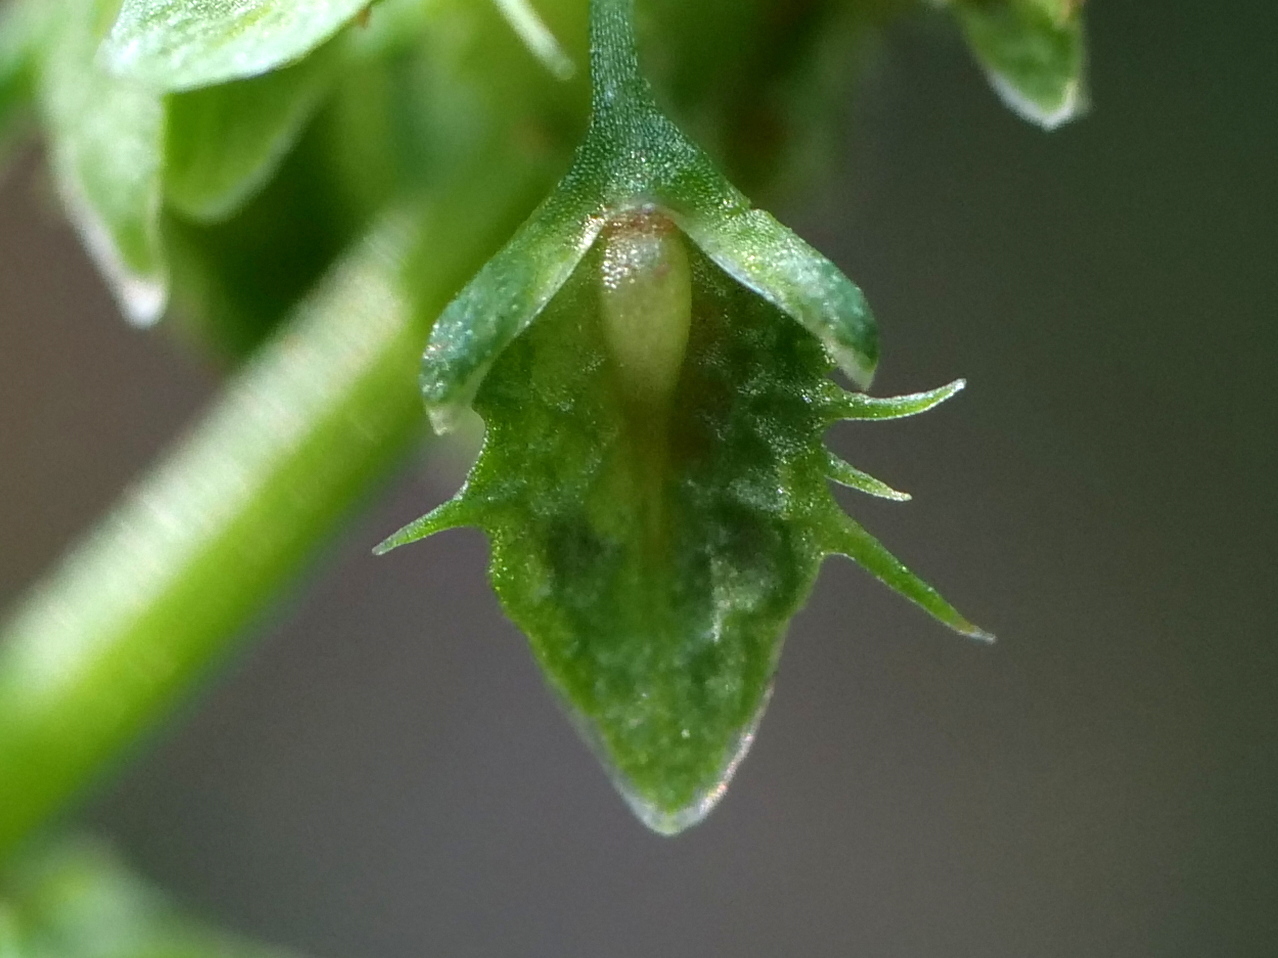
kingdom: Plantae
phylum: Tracheophyta
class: Magnoliopsida
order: Caryophyllales
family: Polygonaceae
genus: Rumex
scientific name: Rumex obtusifolius
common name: Bitter dock
